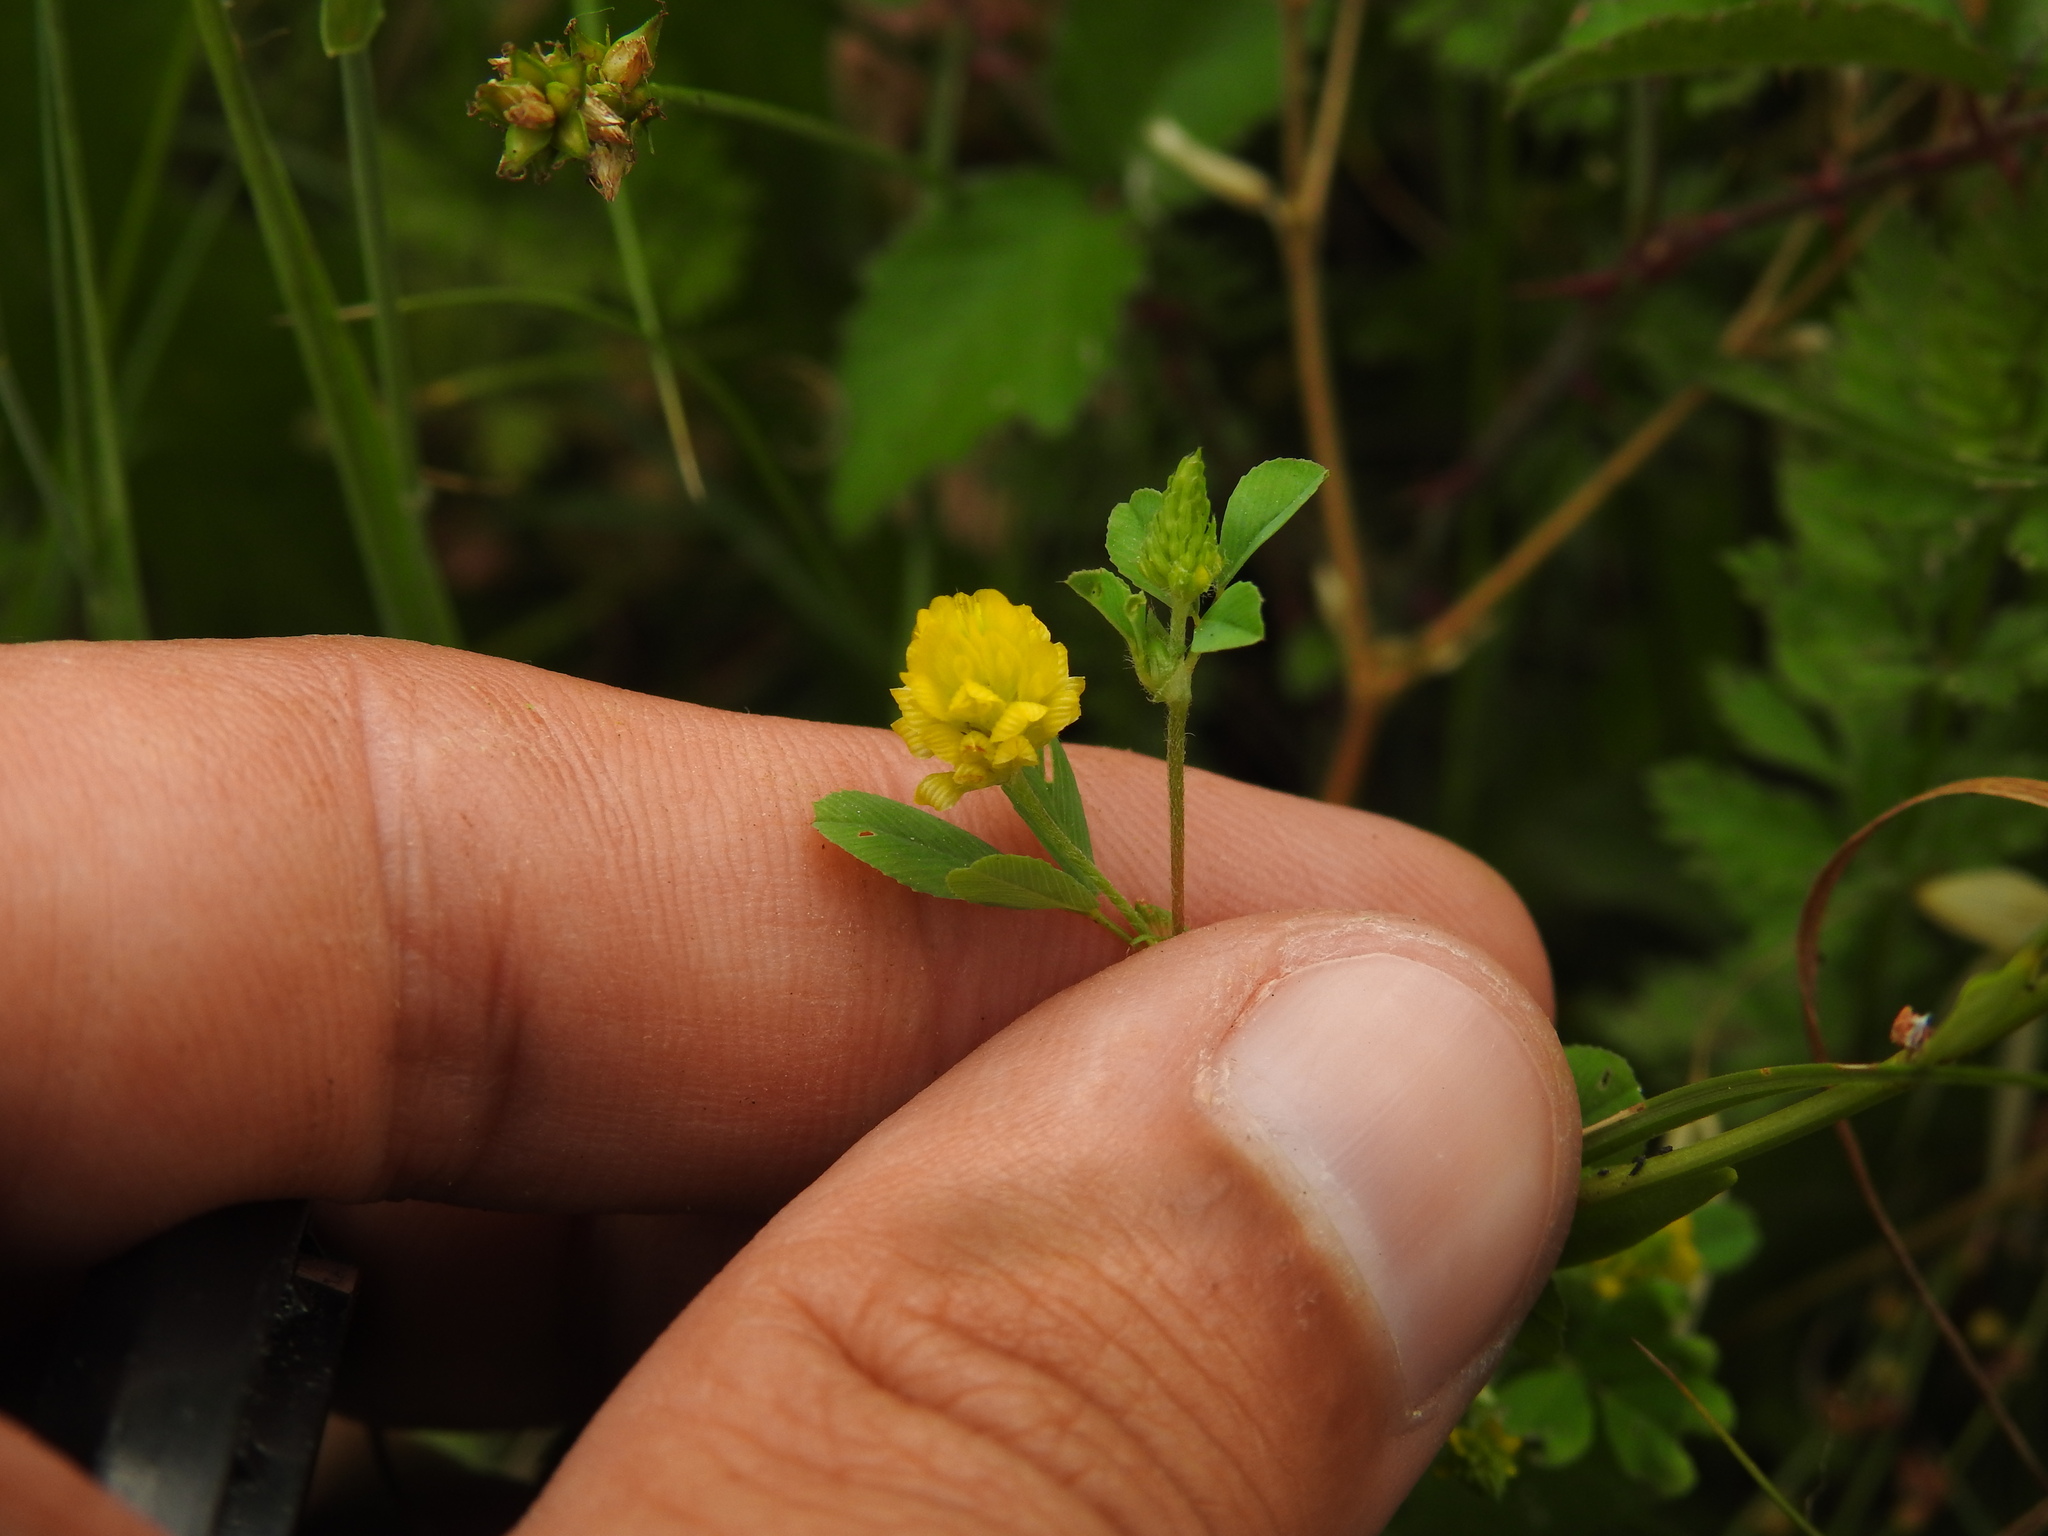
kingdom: Plantae
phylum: Tracheophyta
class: Magnoliopsida
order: Fabales
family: Fabaceae
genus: Trifolium
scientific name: Trifolium campestre
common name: Field clover
